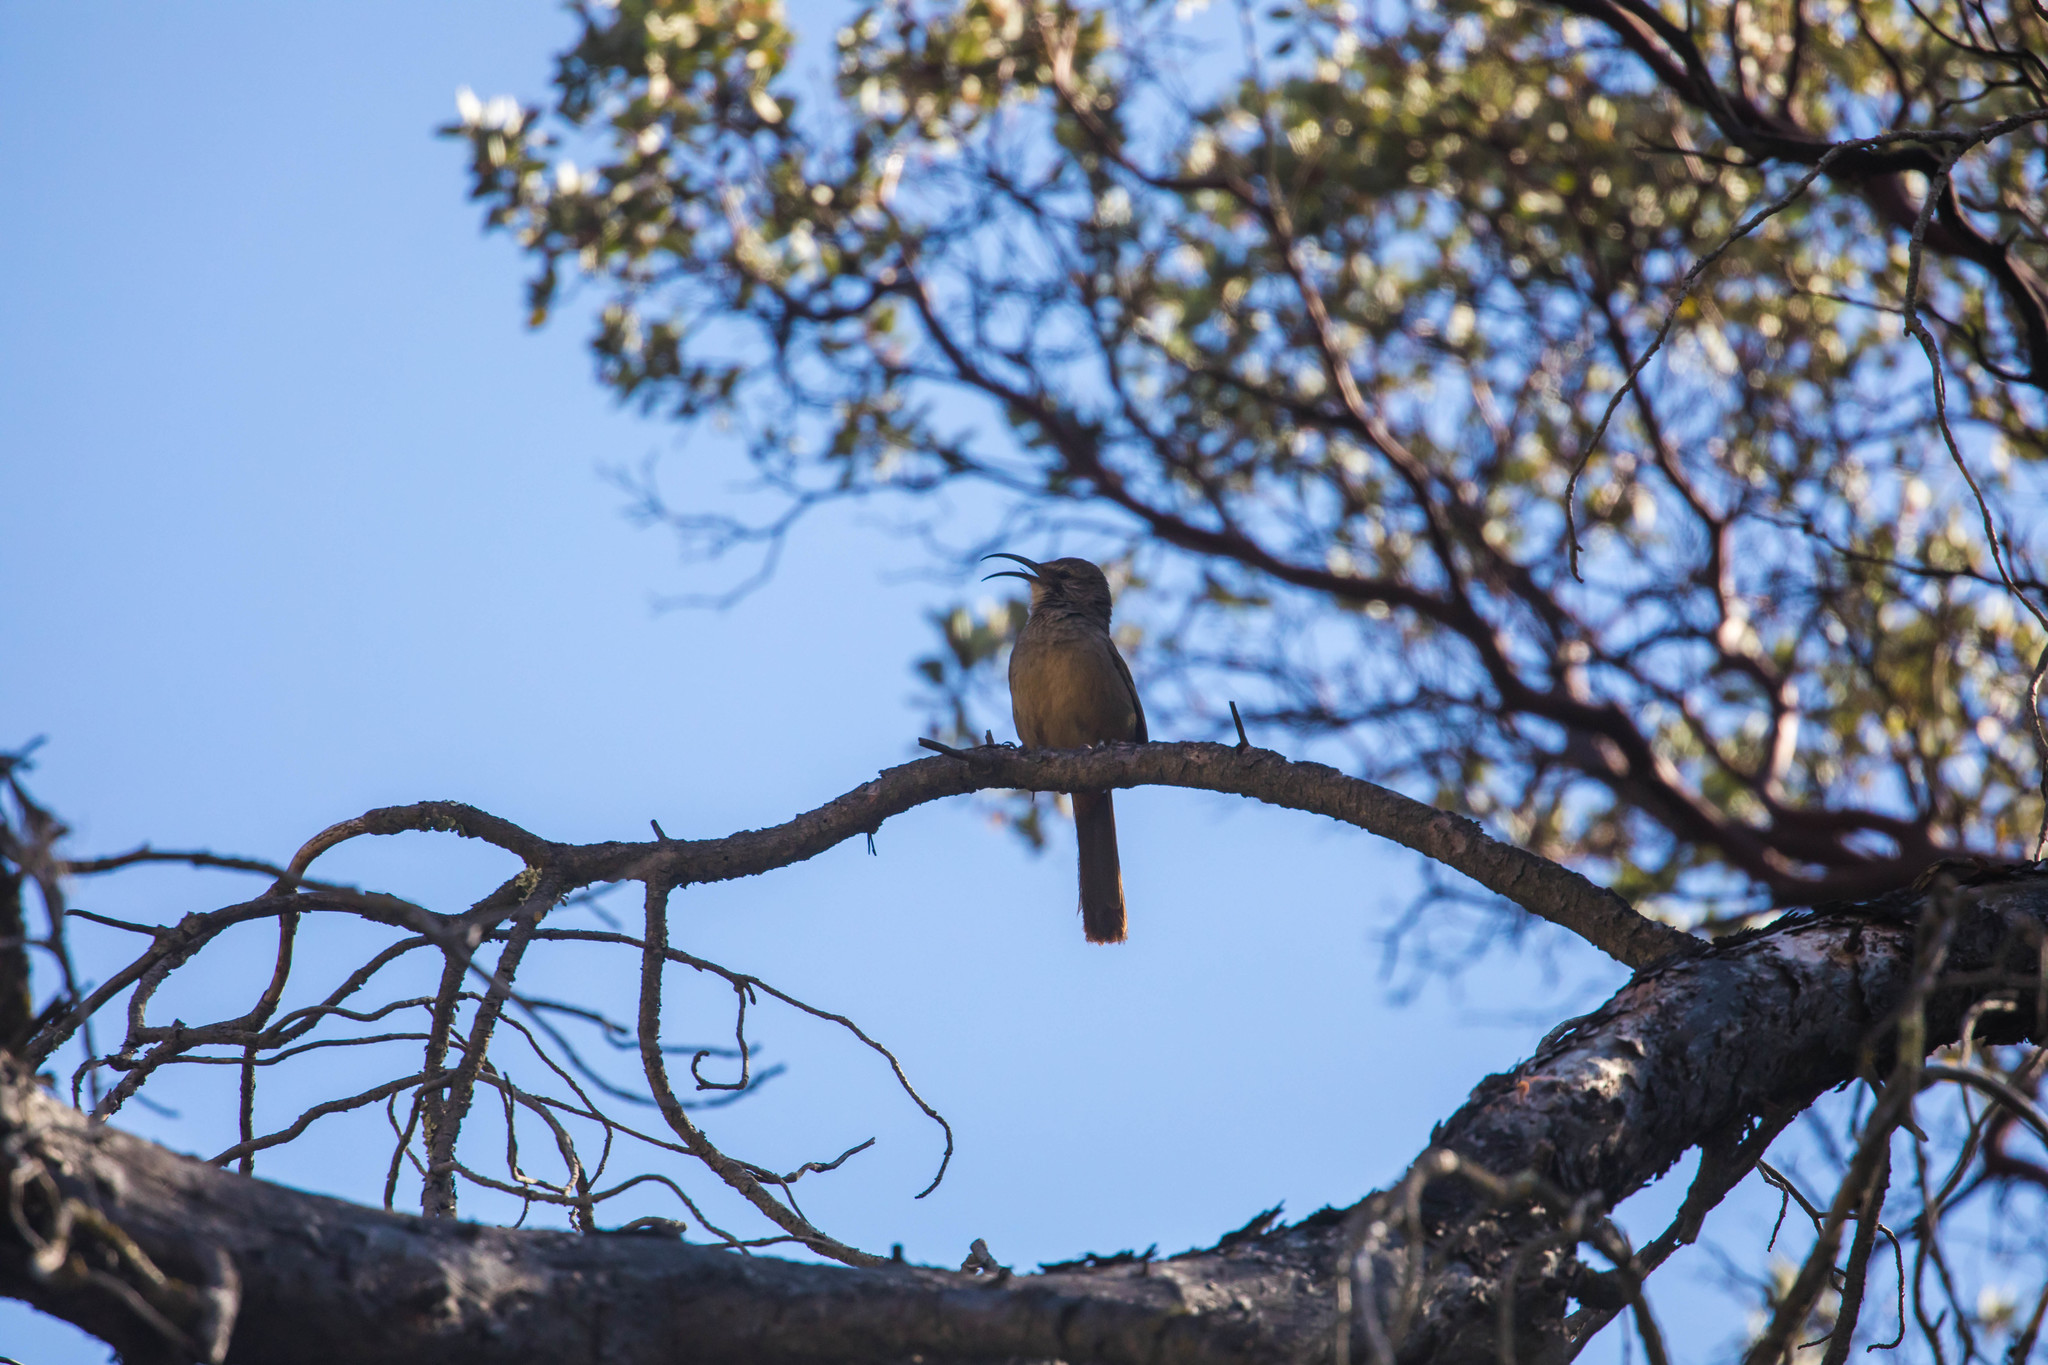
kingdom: Animalia
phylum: Chordata
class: Aves
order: Passeriformes
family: Mimidae
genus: Toxostoma
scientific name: Toxostoma redivivum
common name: California thrasher
